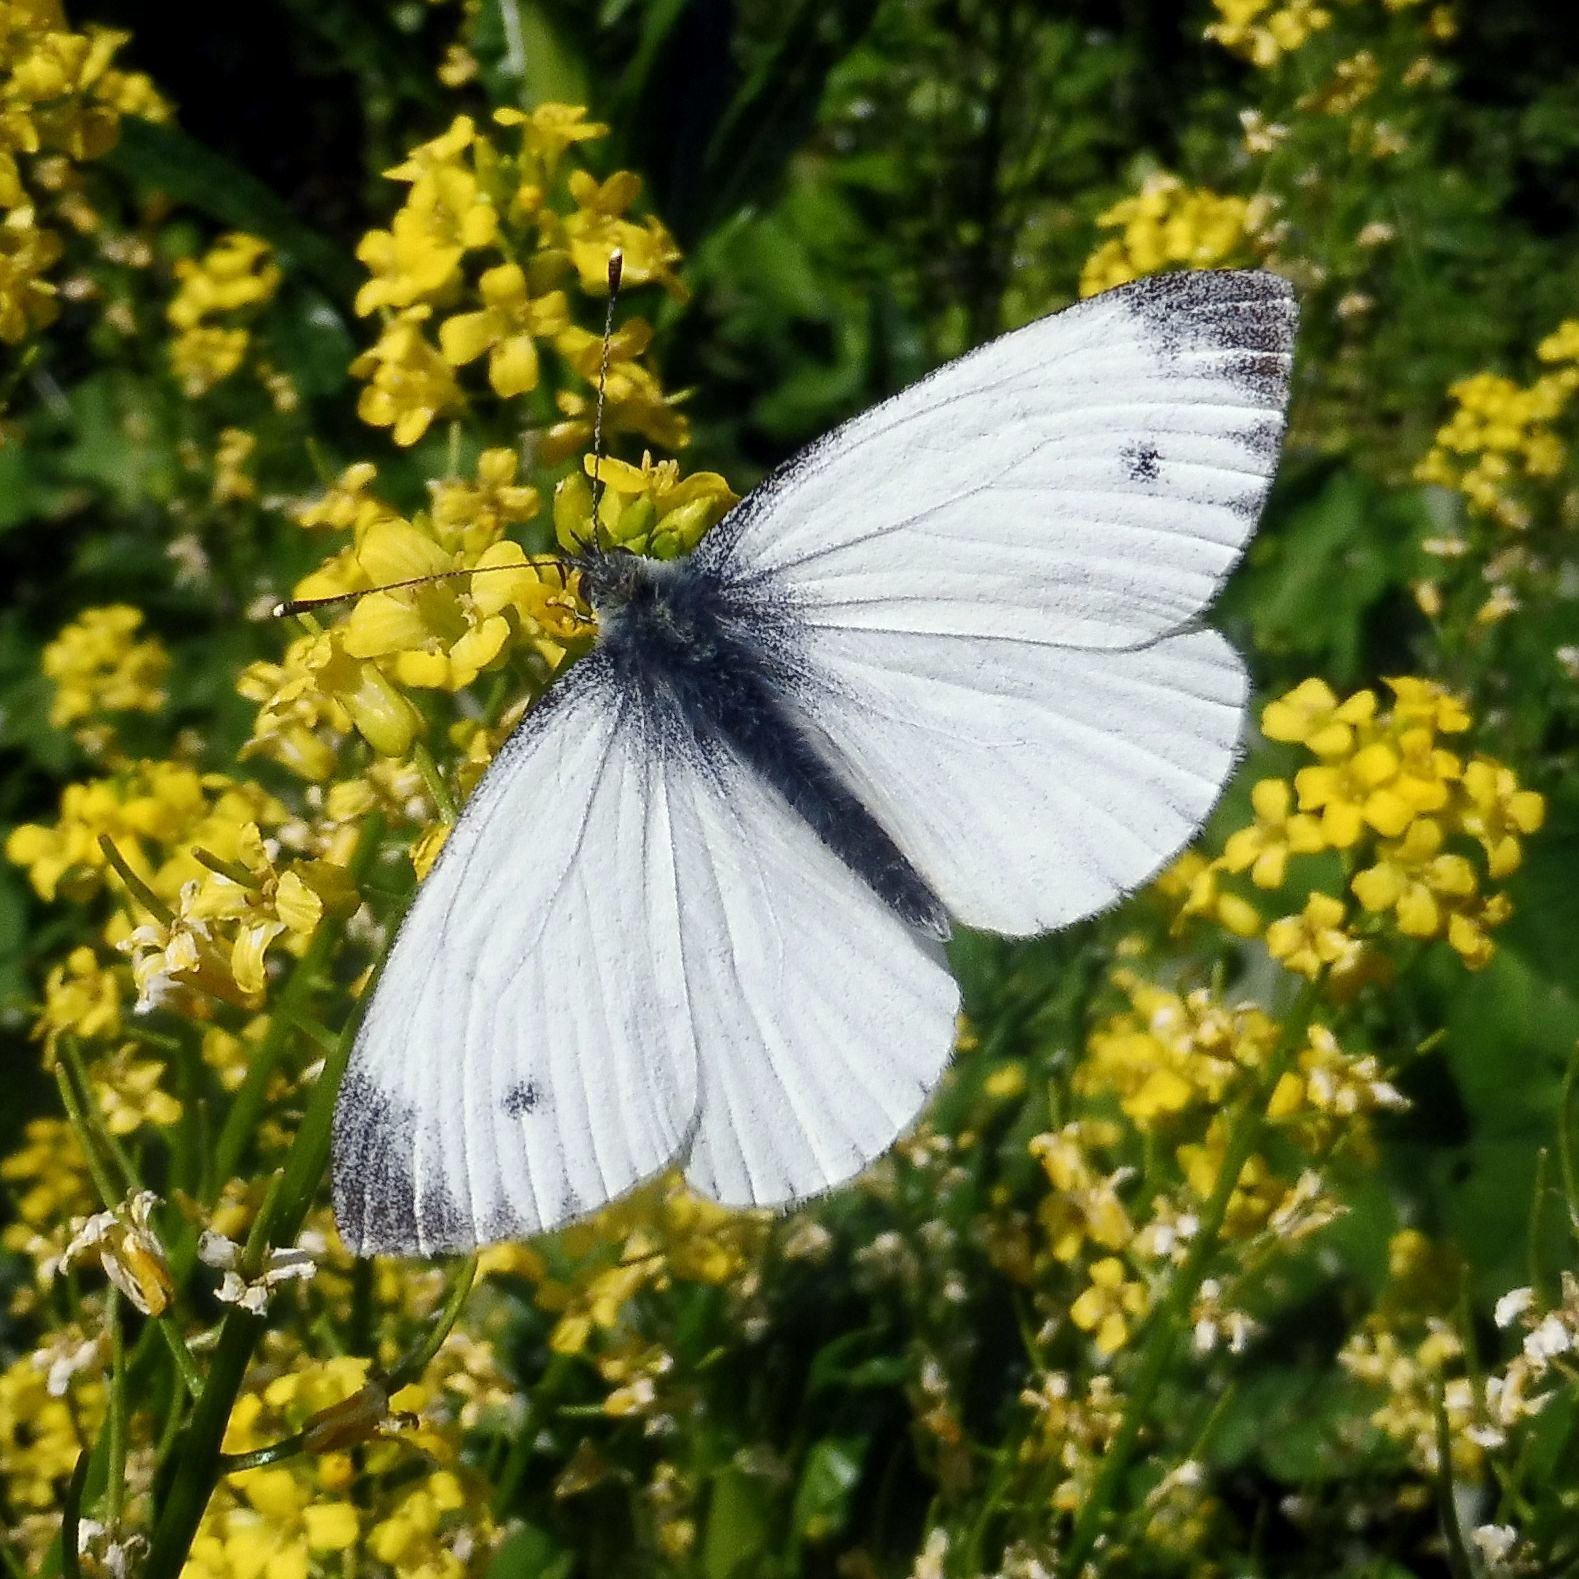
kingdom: Animalia
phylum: Arthropoda
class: Insecta
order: Lepidoptera
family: Pieridae
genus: Pieris
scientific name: Pieris napi
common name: Green-veined white
